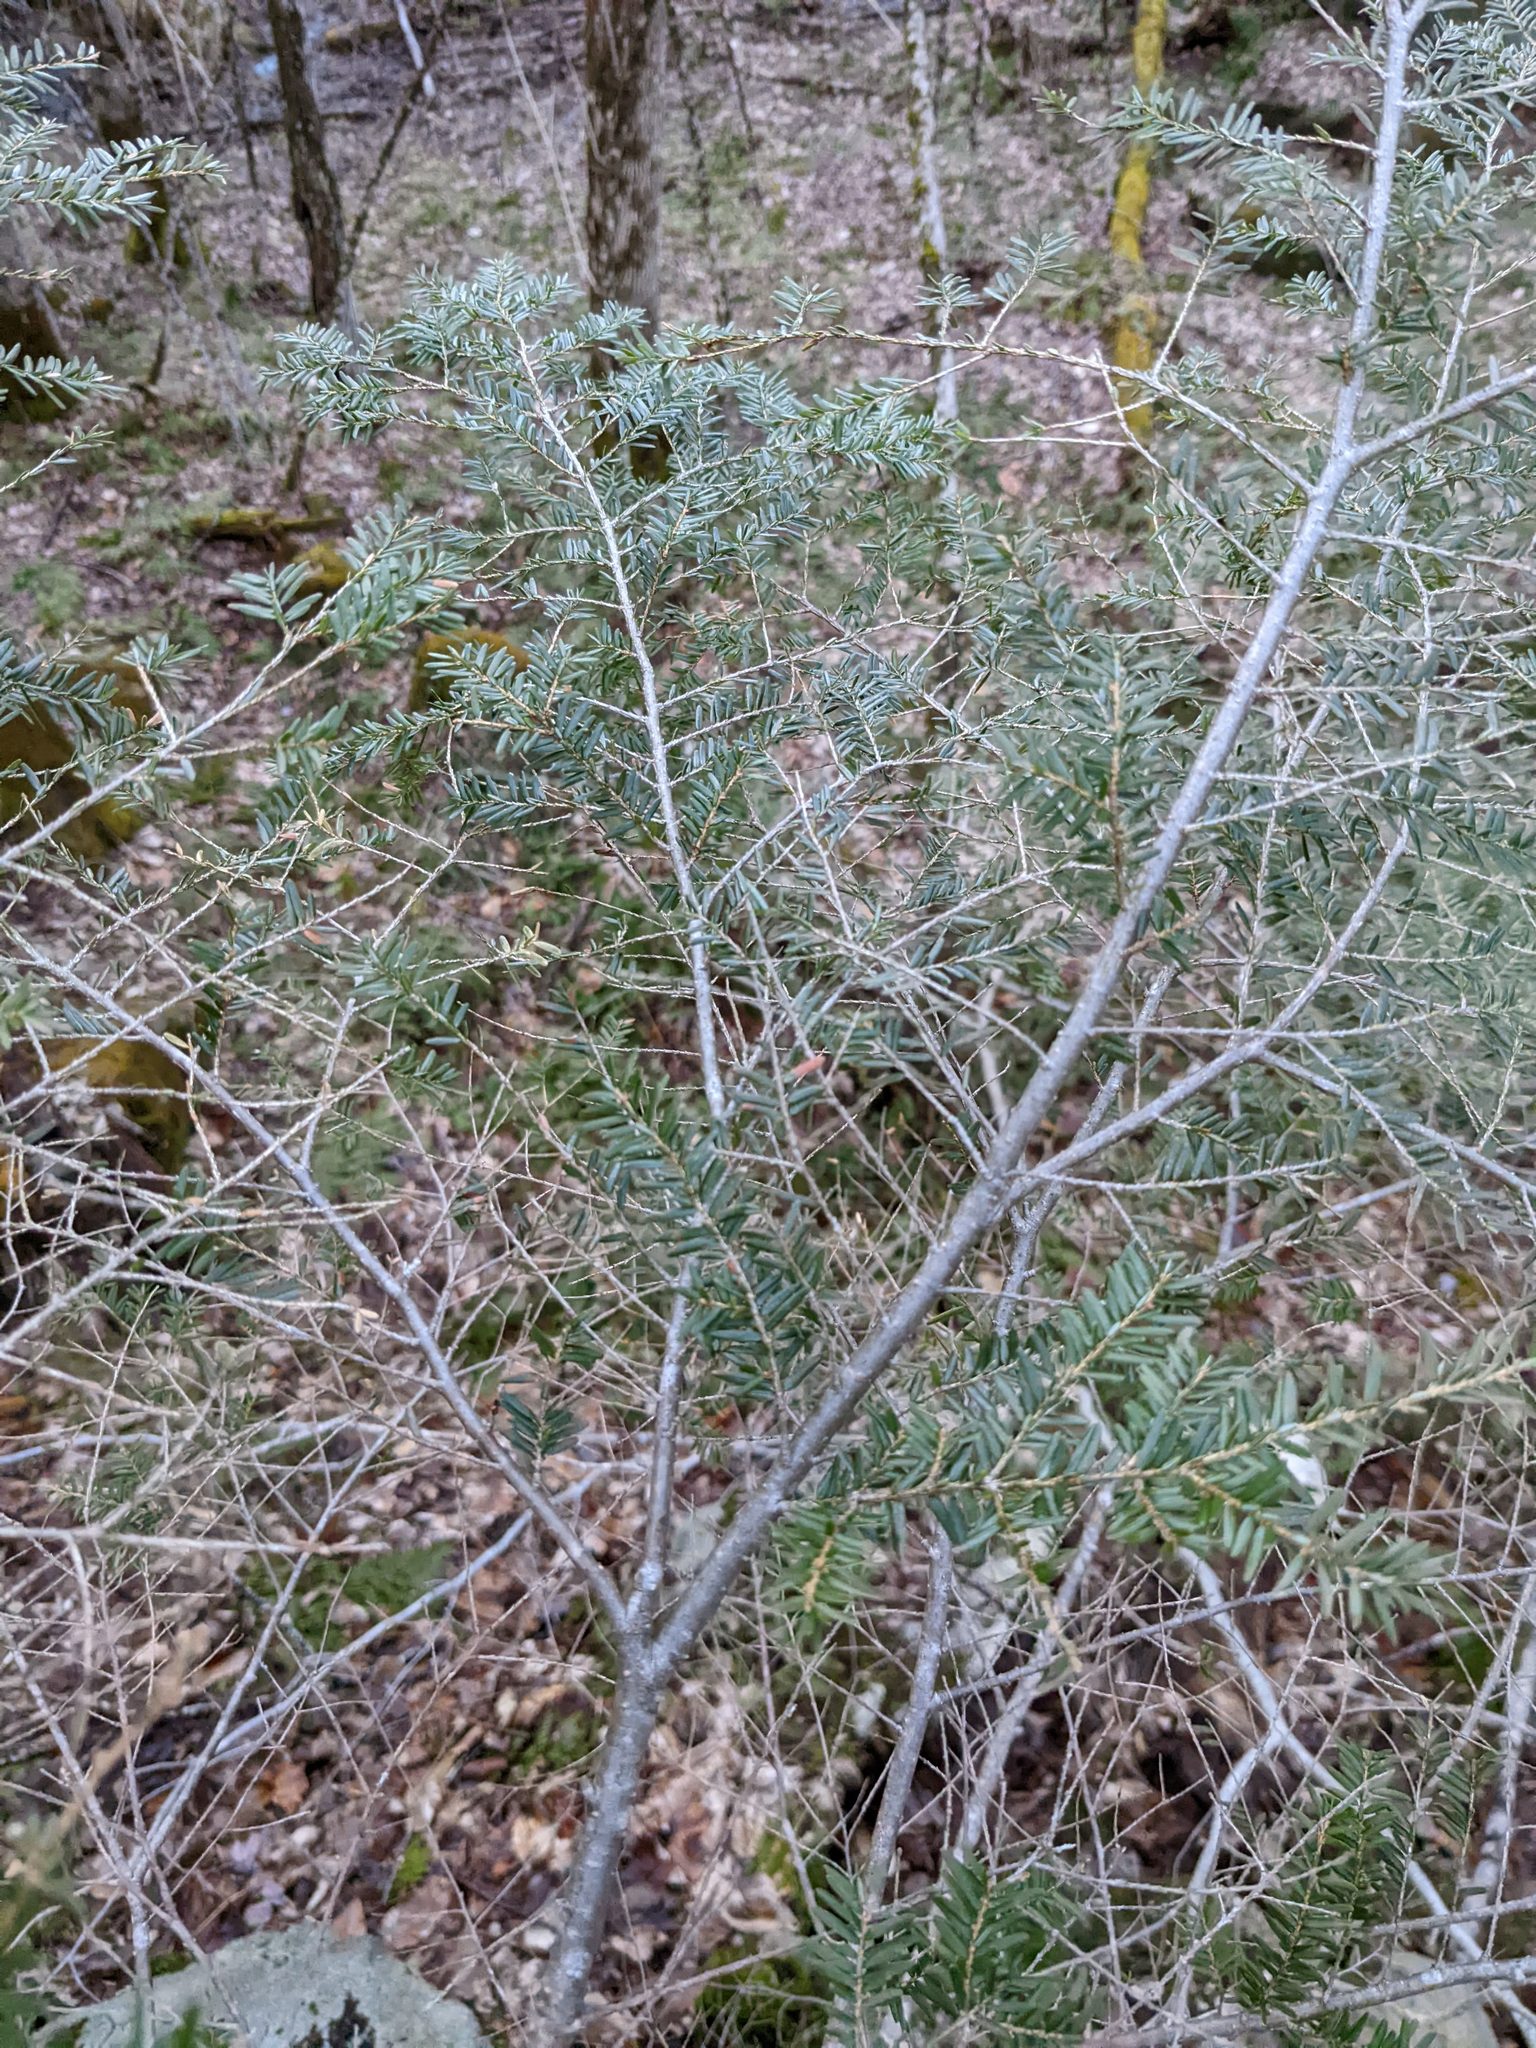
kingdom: Plantae
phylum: Tracheophyta
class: Pinopsida
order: Pinales
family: Pinaceae
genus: Tsuga
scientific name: Tsuga canadensis
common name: Eastern hemlock
